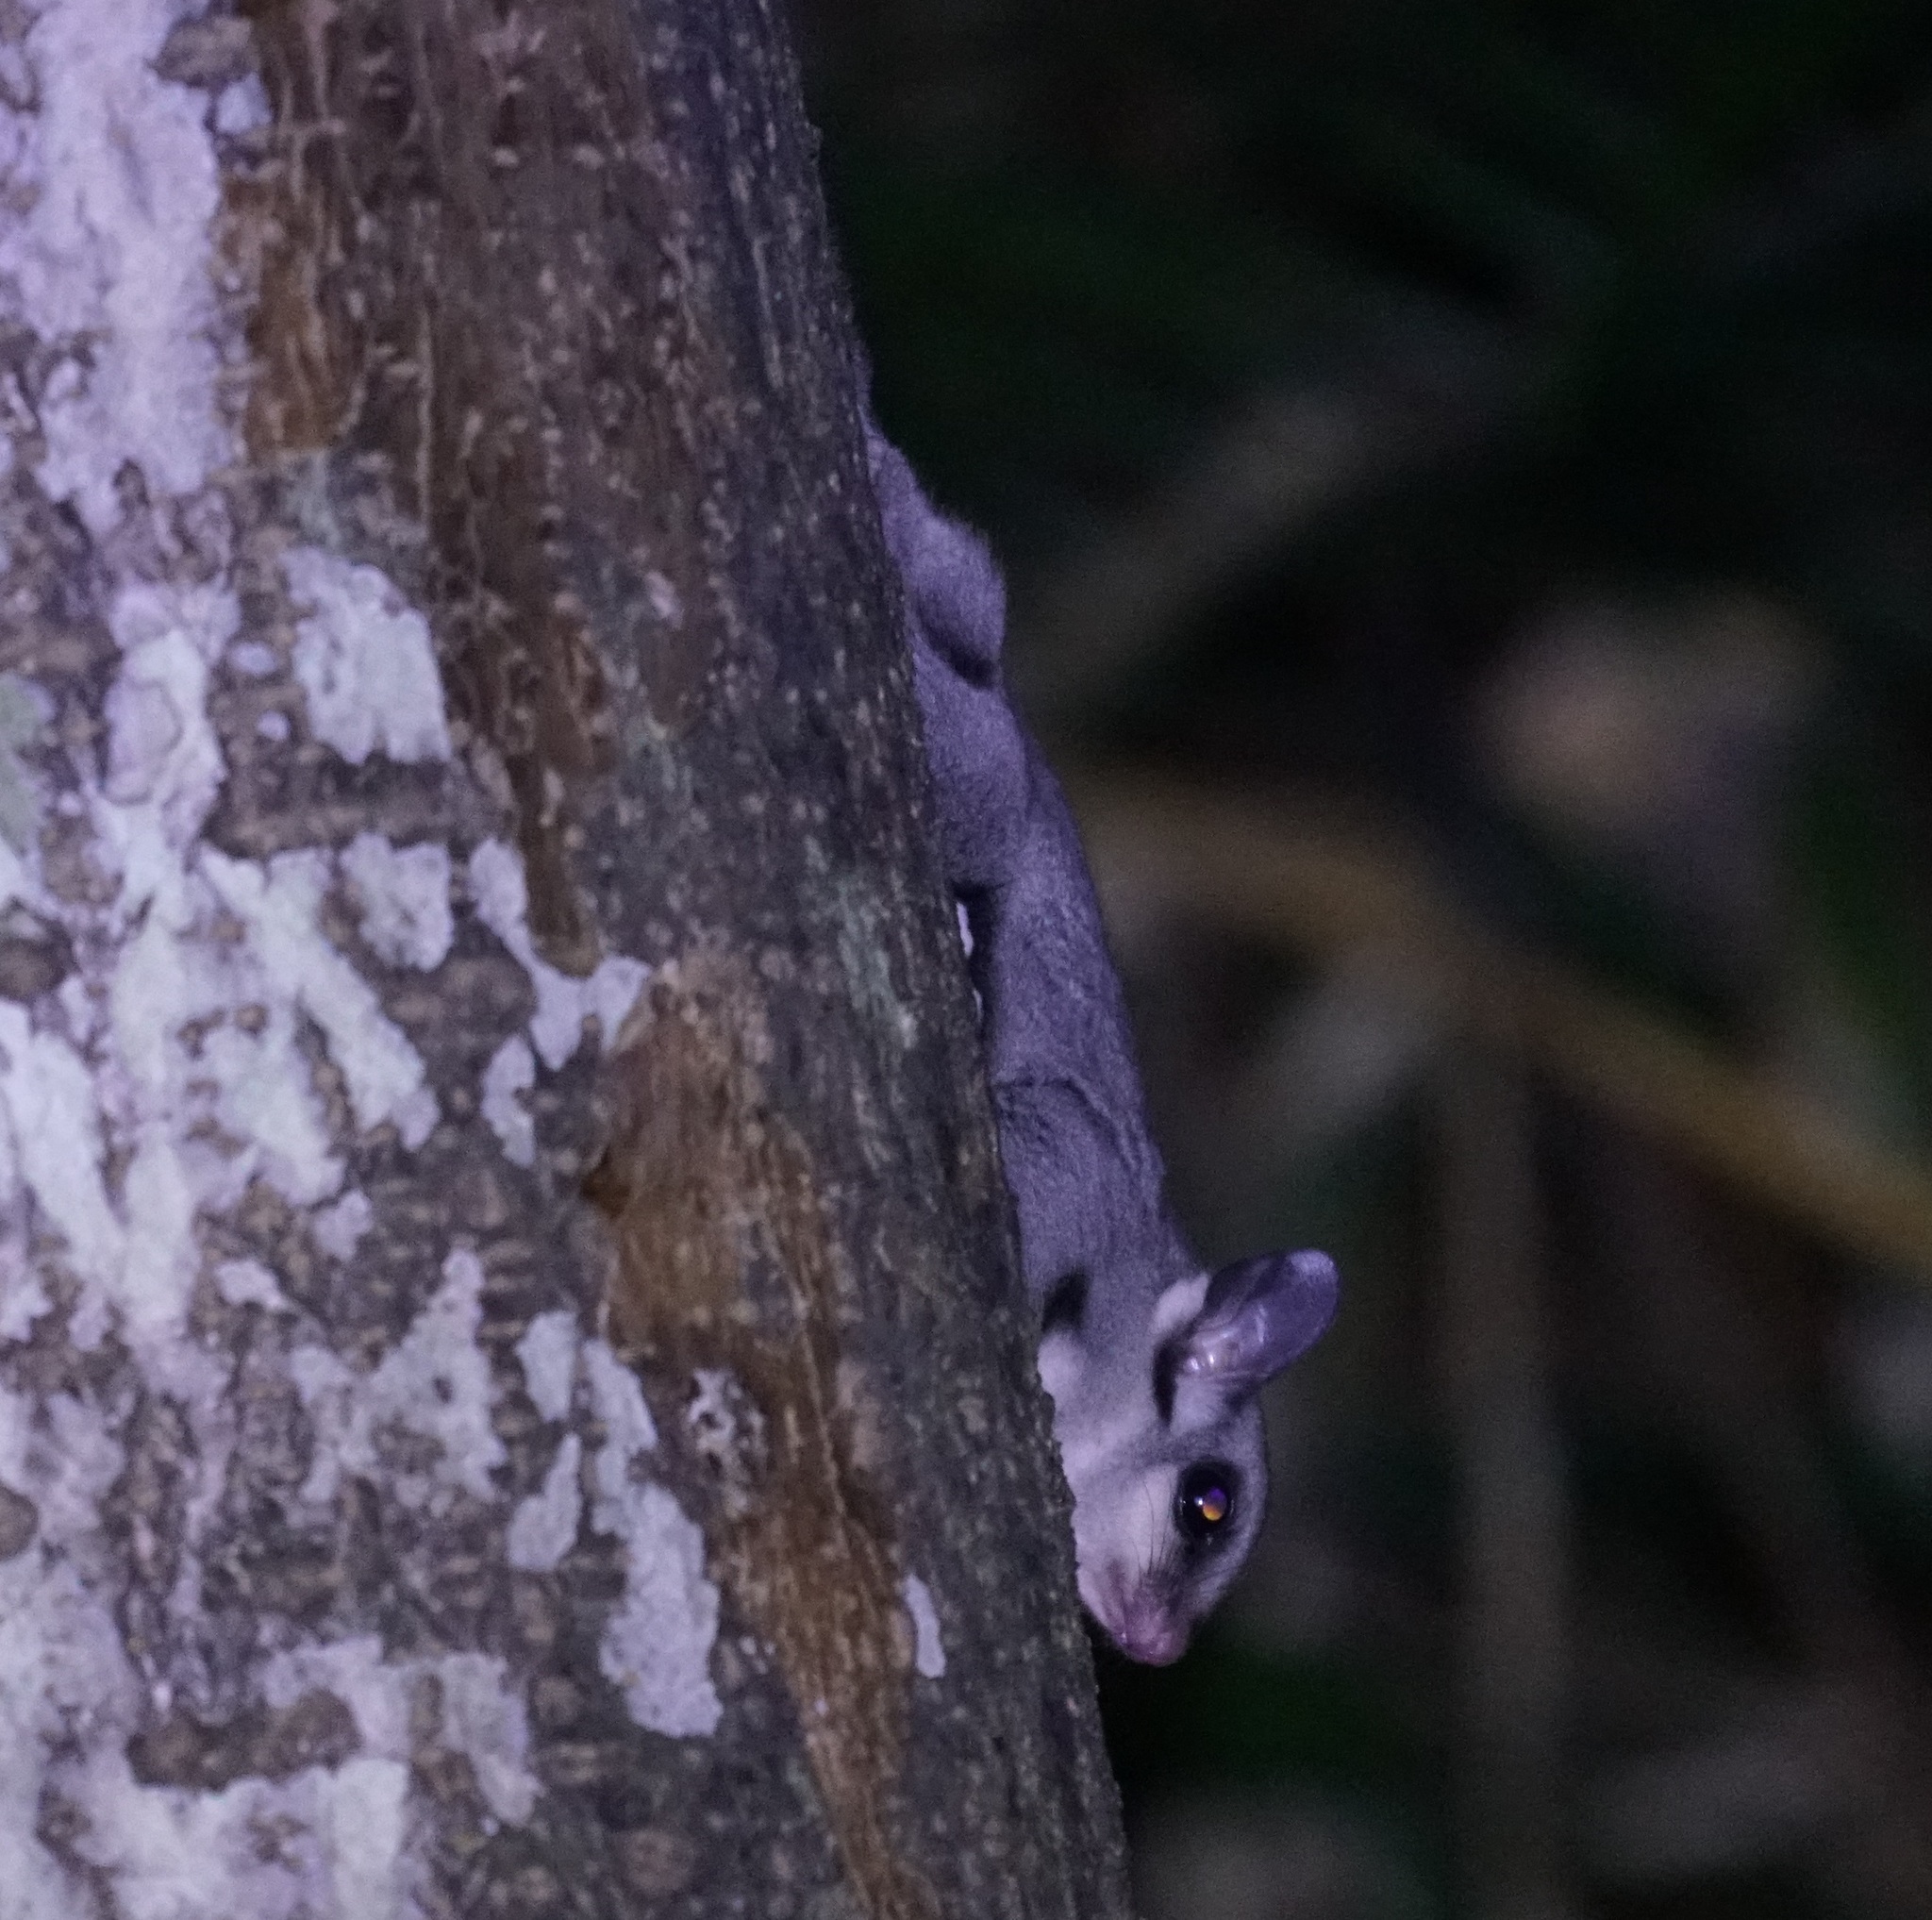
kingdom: Animalia
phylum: Chordata
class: Mammalia
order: Diprotodontia
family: Petauridae
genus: Petaurus
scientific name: Petaurus breviceps
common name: Sugar glider
